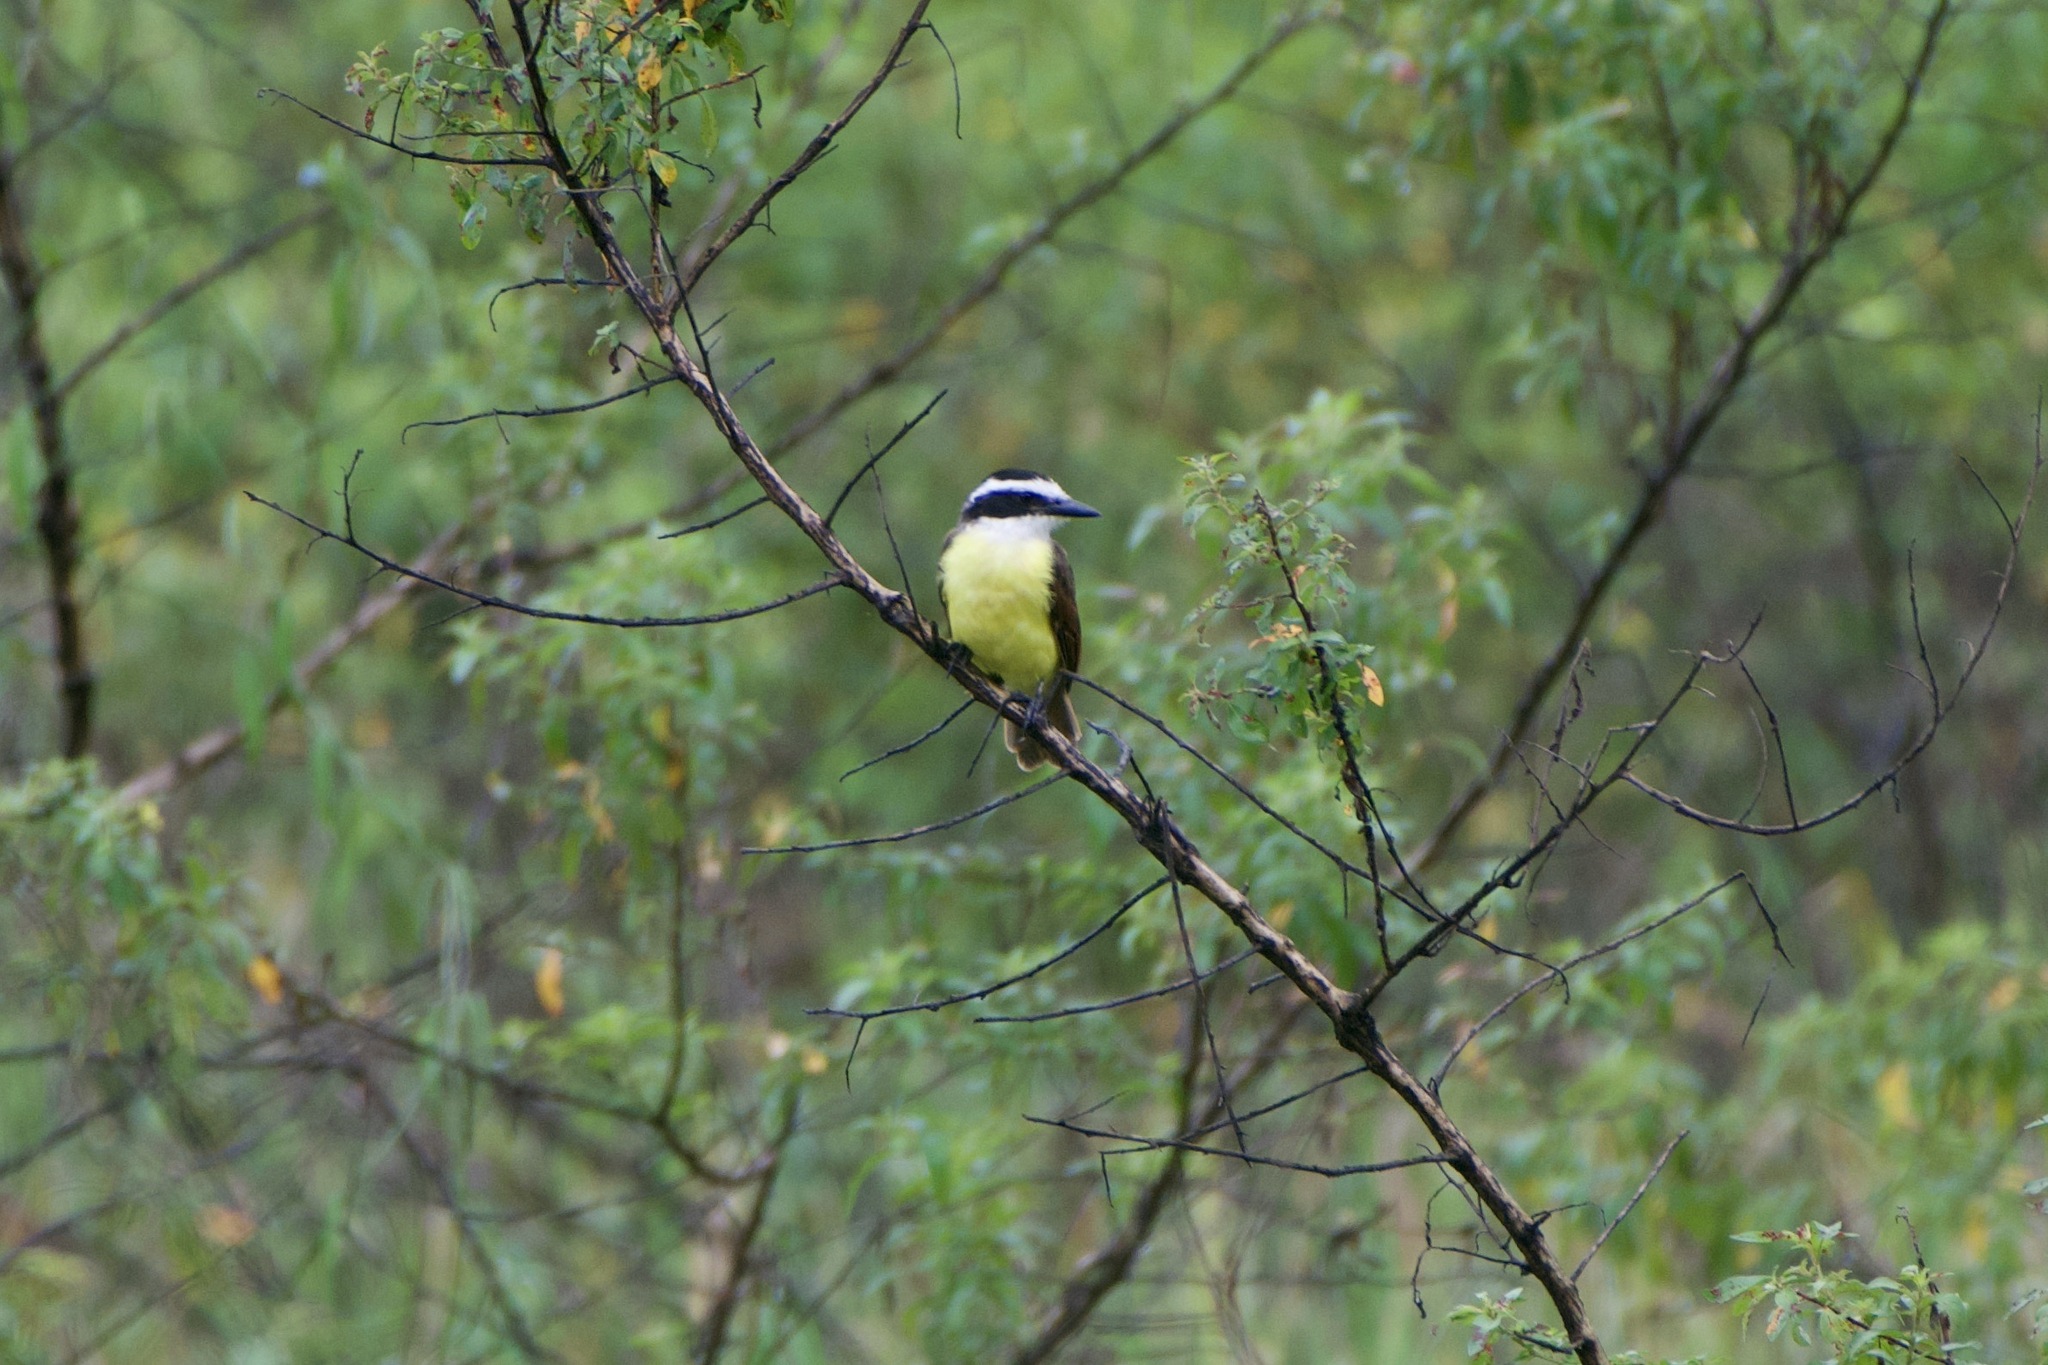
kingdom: Animalia
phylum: Chordata
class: Aves
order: Passeriformes
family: Tyrannidae
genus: Pitangus
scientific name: Pitangus sulphuratus
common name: Great kiskadee
